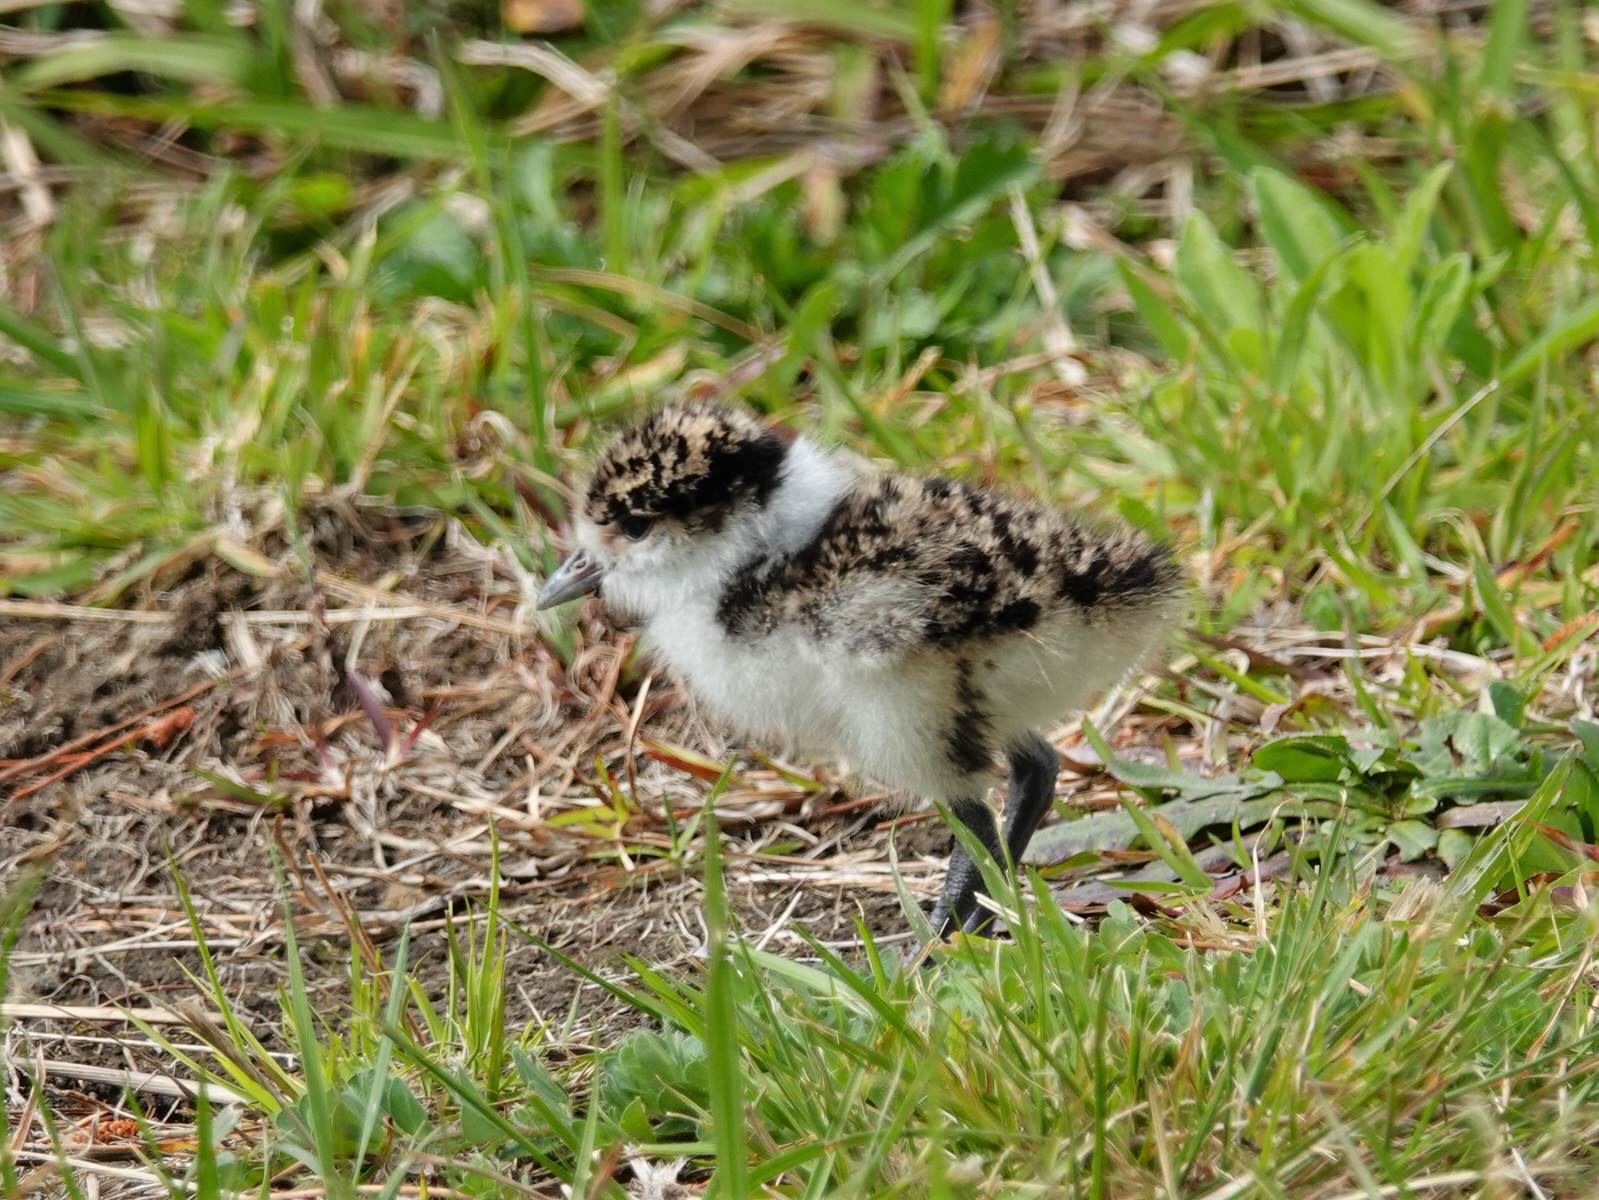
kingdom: Animalia
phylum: Chordata
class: Aves
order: Charadriiformes
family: Charadriidae
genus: Vanellus
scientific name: Vanellus miles
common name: Masked lapwing
